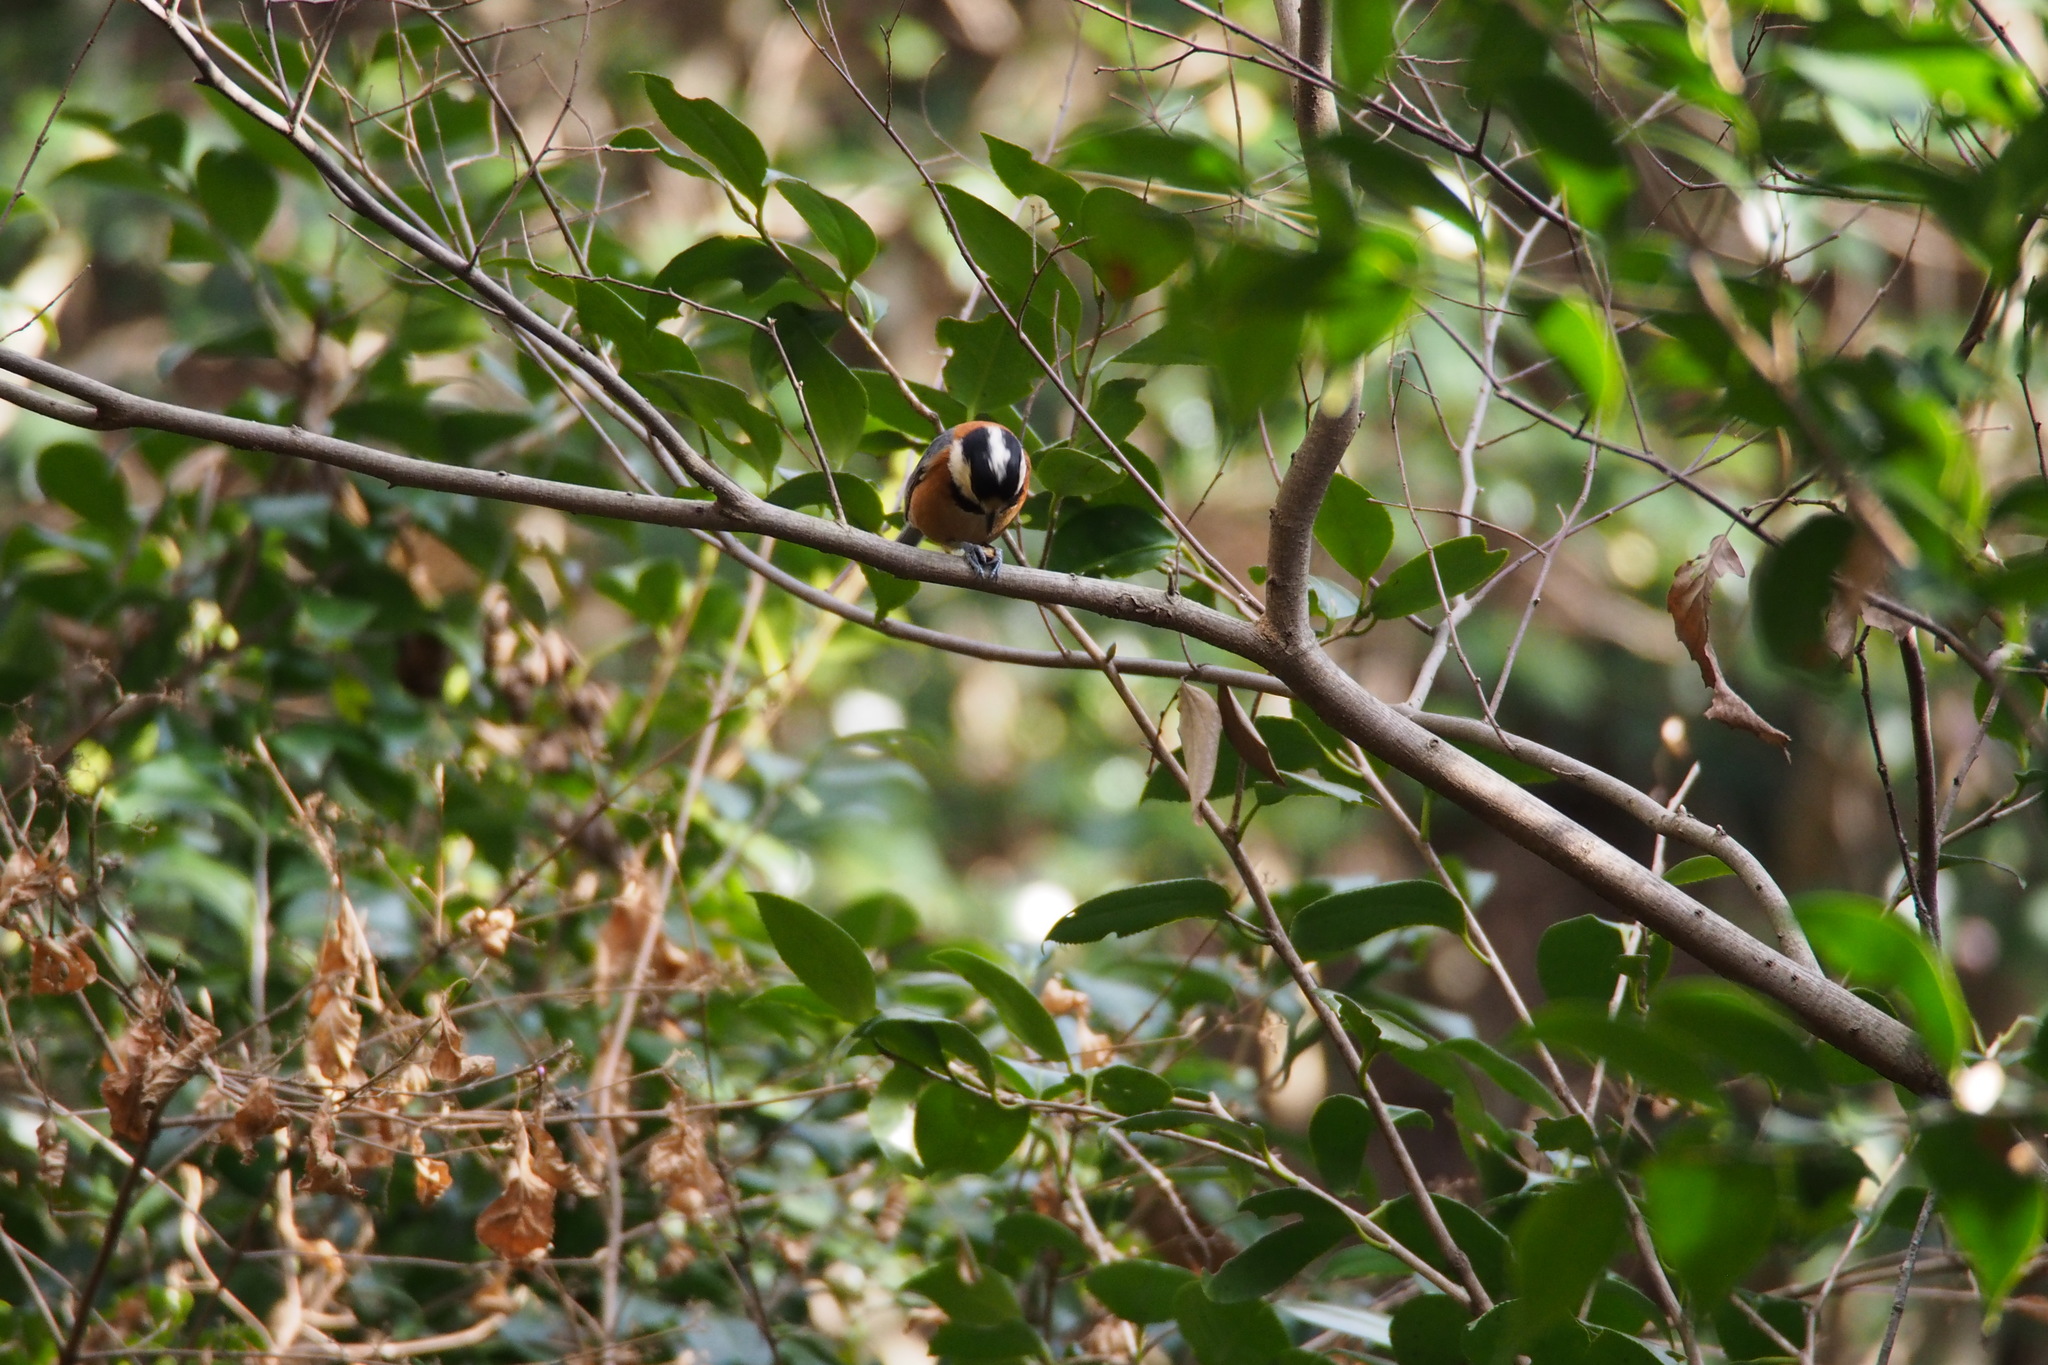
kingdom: Animalia
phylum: Chordata
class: Aves
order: Passeriformes
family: Paridae
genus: Poecile
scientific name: Poecile varius
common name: Varied tit
